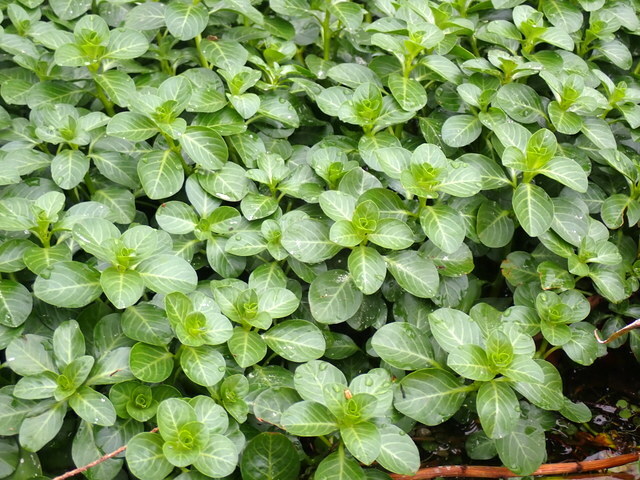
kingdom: Plantae
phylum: Tracheophyta
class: Magnoliopsida
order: Myrtales
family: Onagraceae
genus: Ludwigia
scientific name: Ludwigia peploides
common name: Floating primrose-willow
